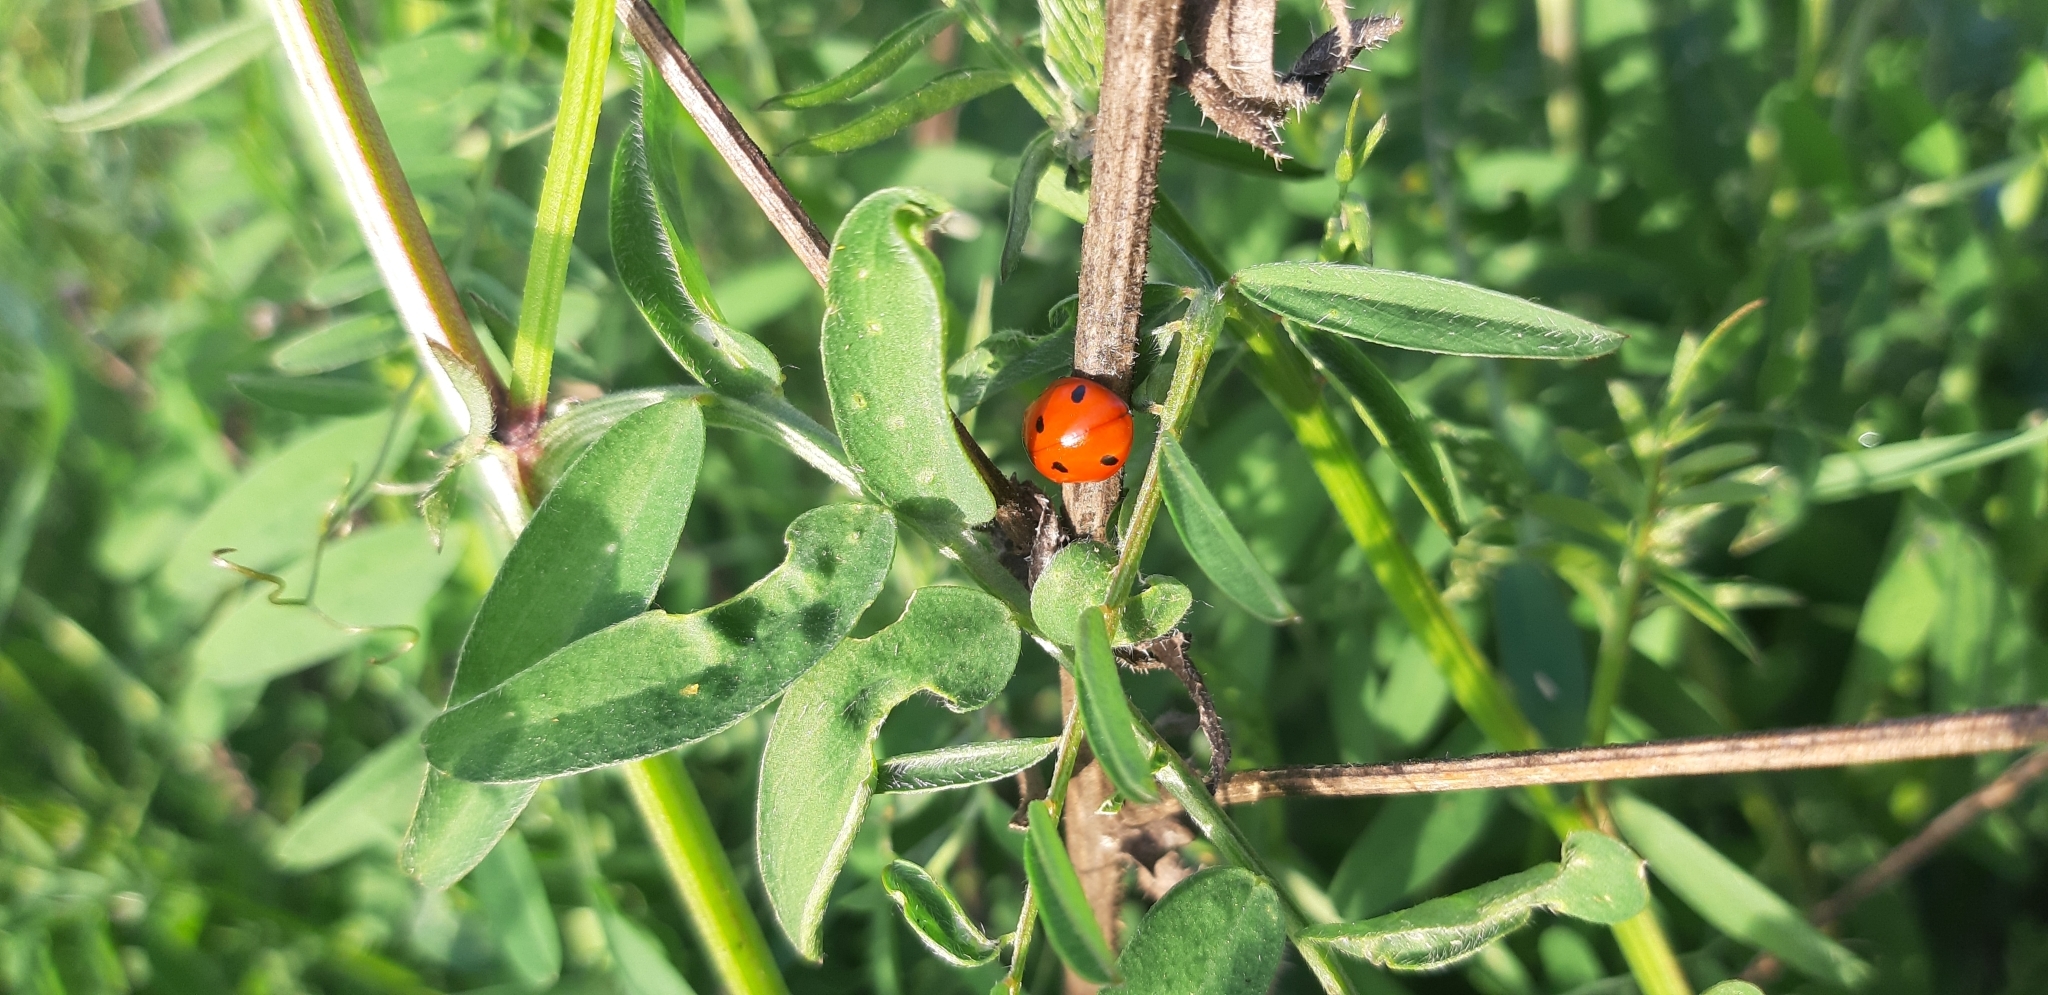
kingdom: Animalia
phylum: Arthropoda
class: Insecta
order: Coleoptera
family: Coccinellidae
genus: Coccinella
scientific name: Coccinella septempunctata
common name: Sevenspotted lady beetle
